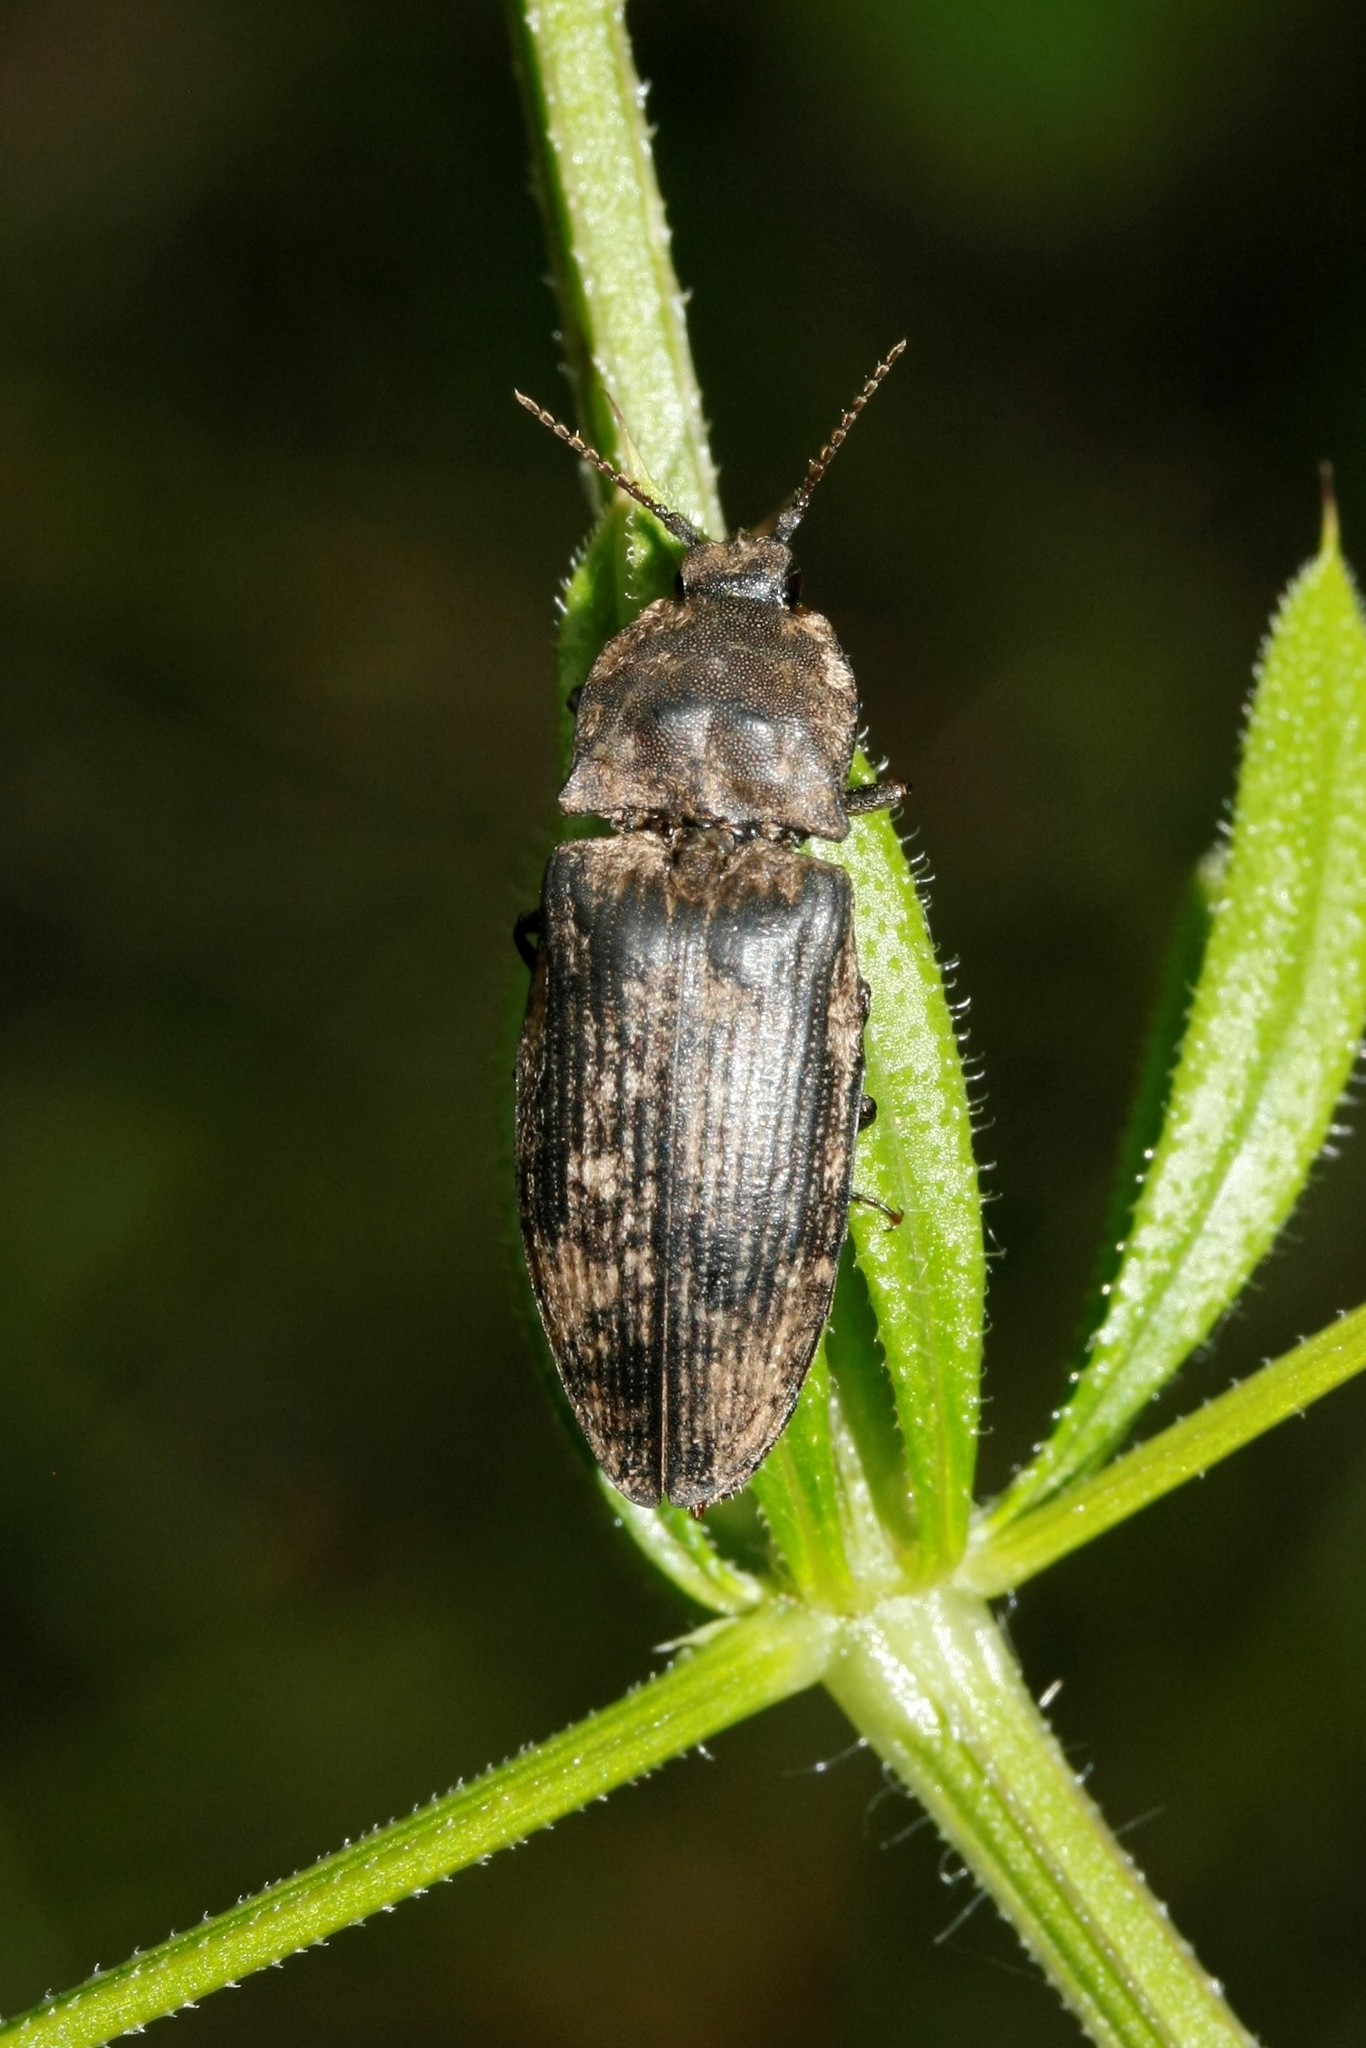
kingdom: Animalia
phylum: Arthropoda
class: Insecta
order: Coleoptera
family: Elateridae
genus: Agrypnus
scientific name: Agrypnus murinus
